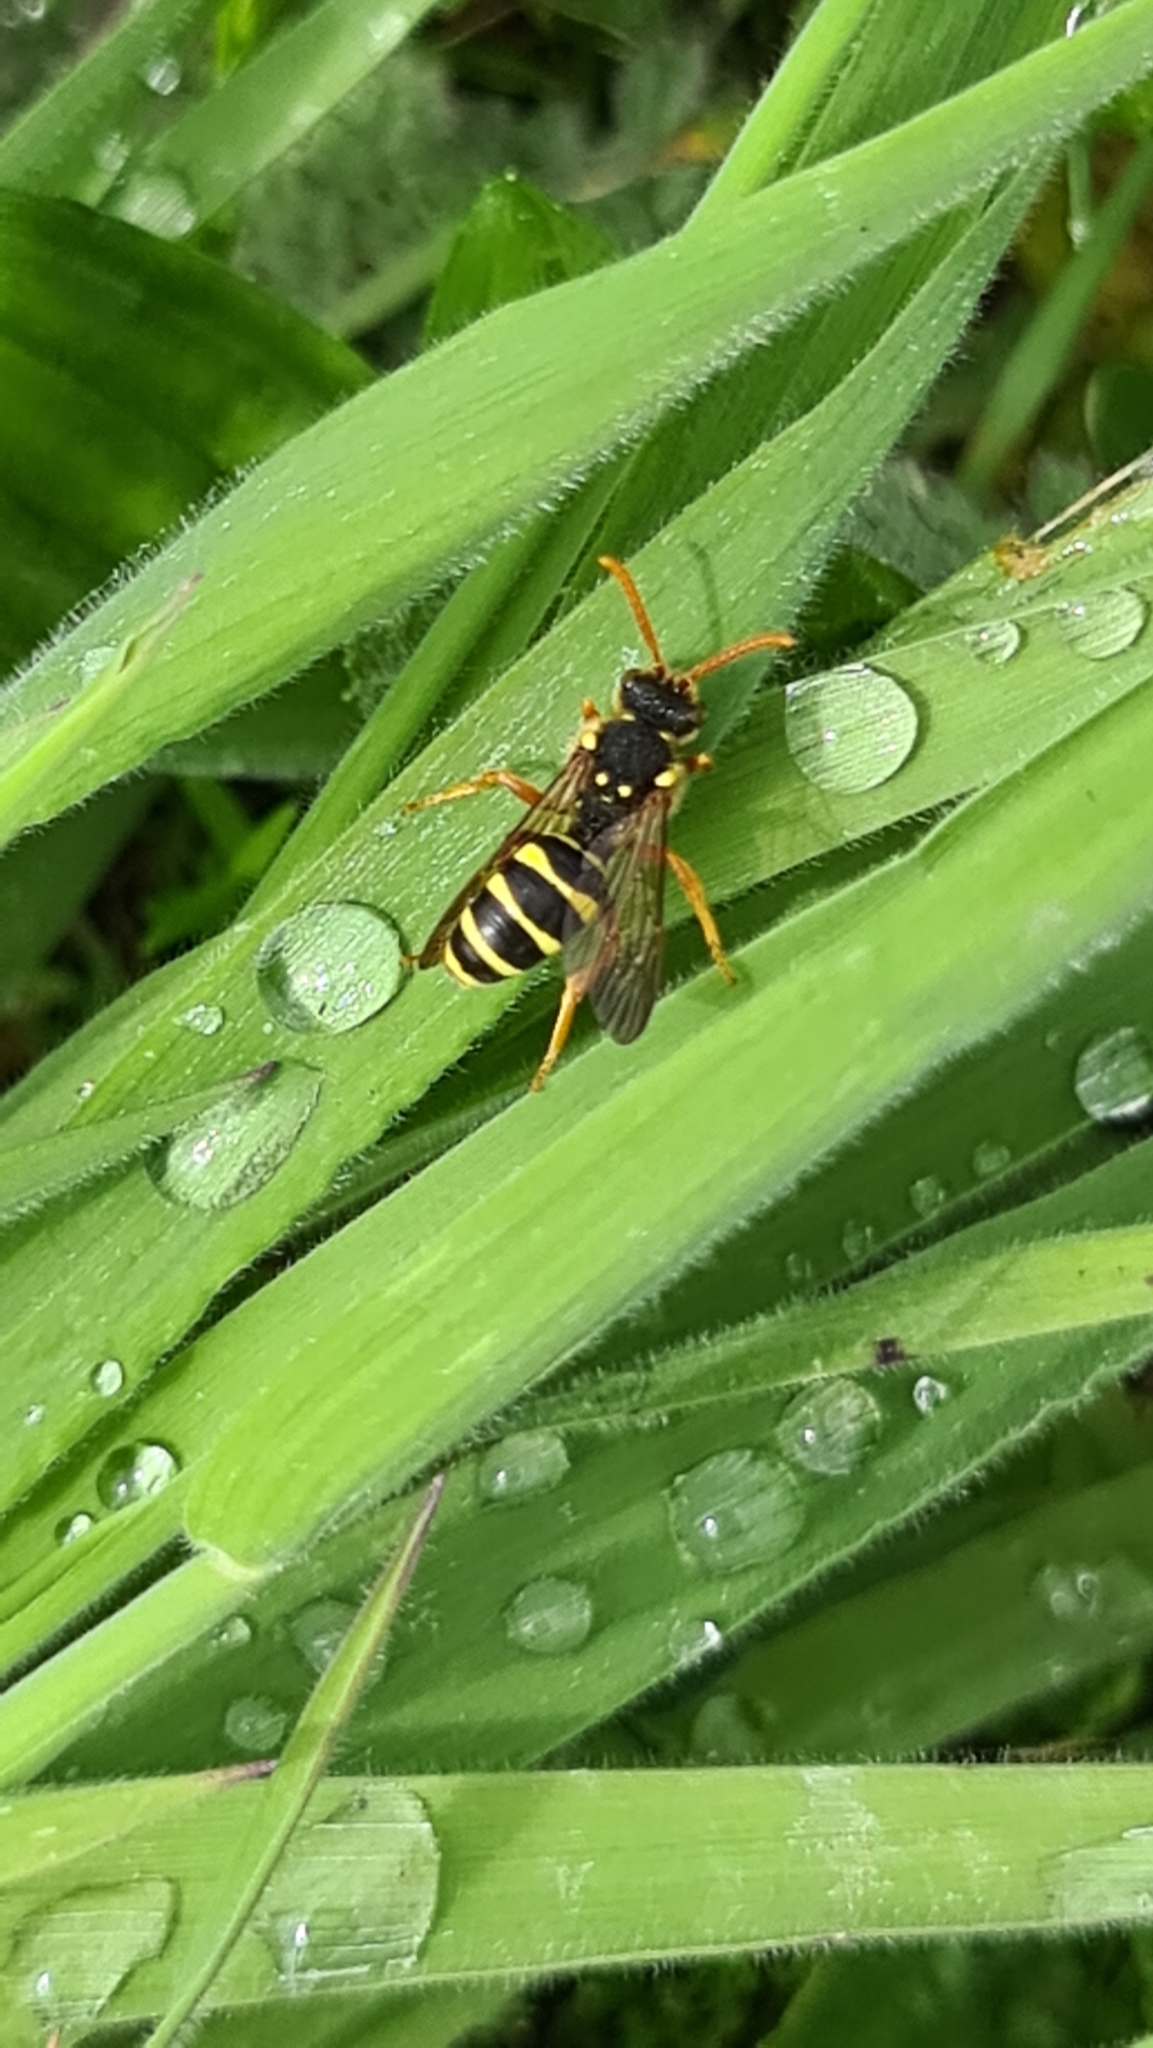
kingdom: Animalia
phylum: Arthropoda
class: Insecta
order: Hymenoptera
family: Apidae
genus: Nomada
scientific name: Nomada goodeniana
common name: Gooden's nomad bee
